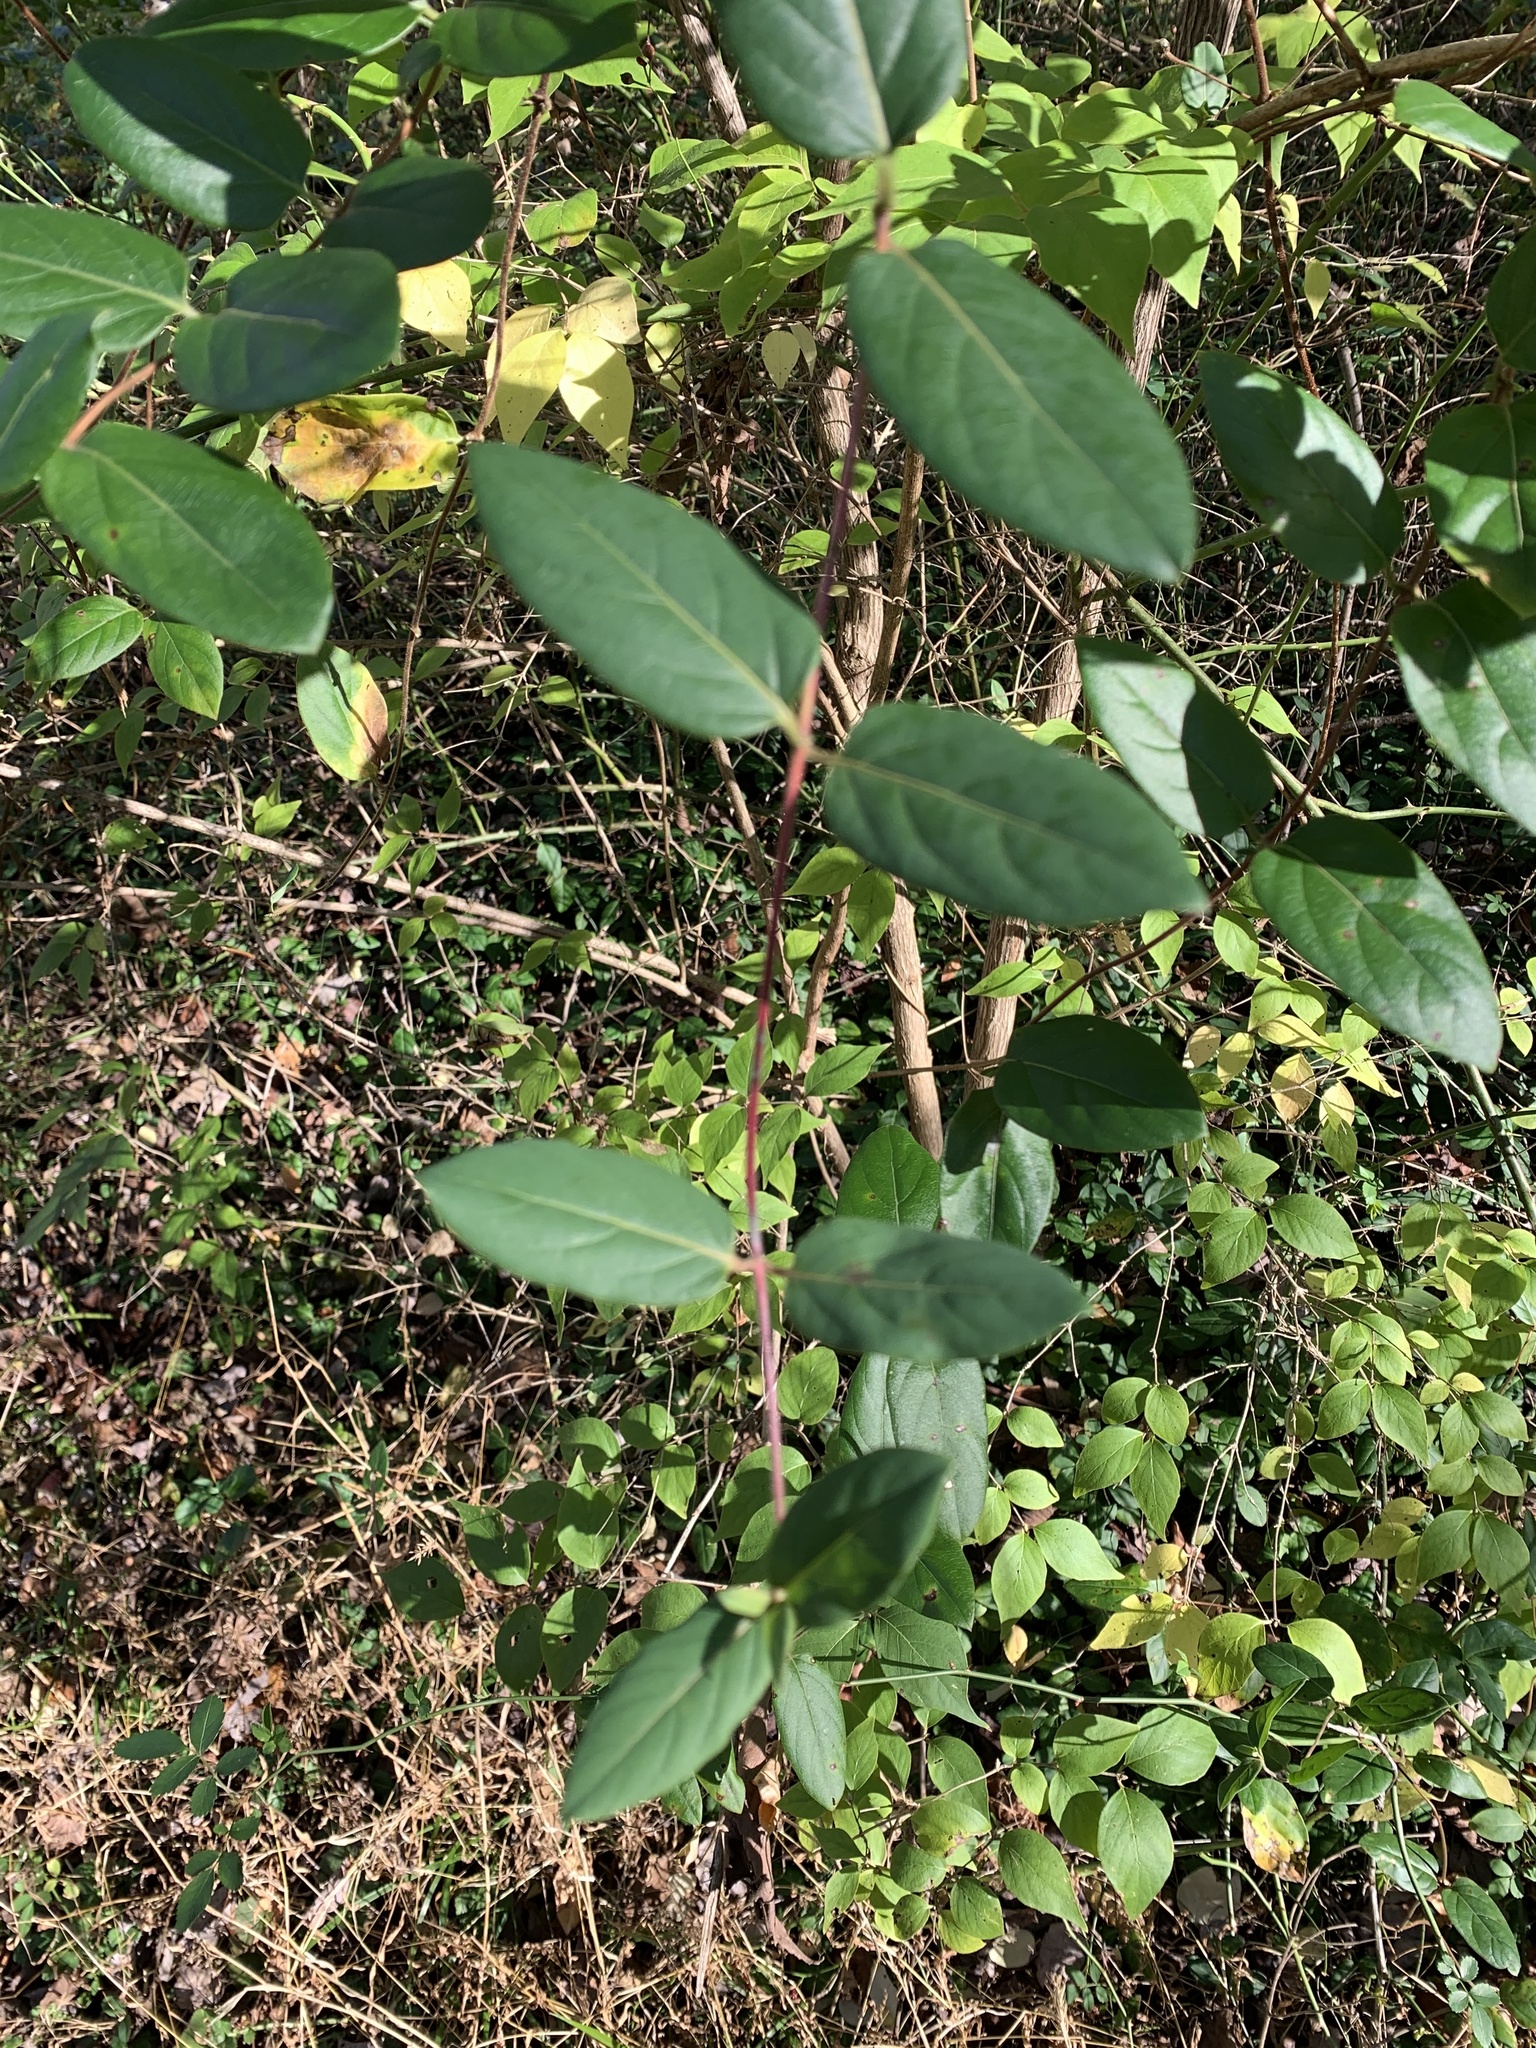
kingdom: Plantae
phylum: Tracheophyta
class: Magnoliopsida
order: Dipsacales
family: Caprifoliaceae
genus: Lonicera
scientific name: Lonicera japonica
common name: Japanese honeysuckle
